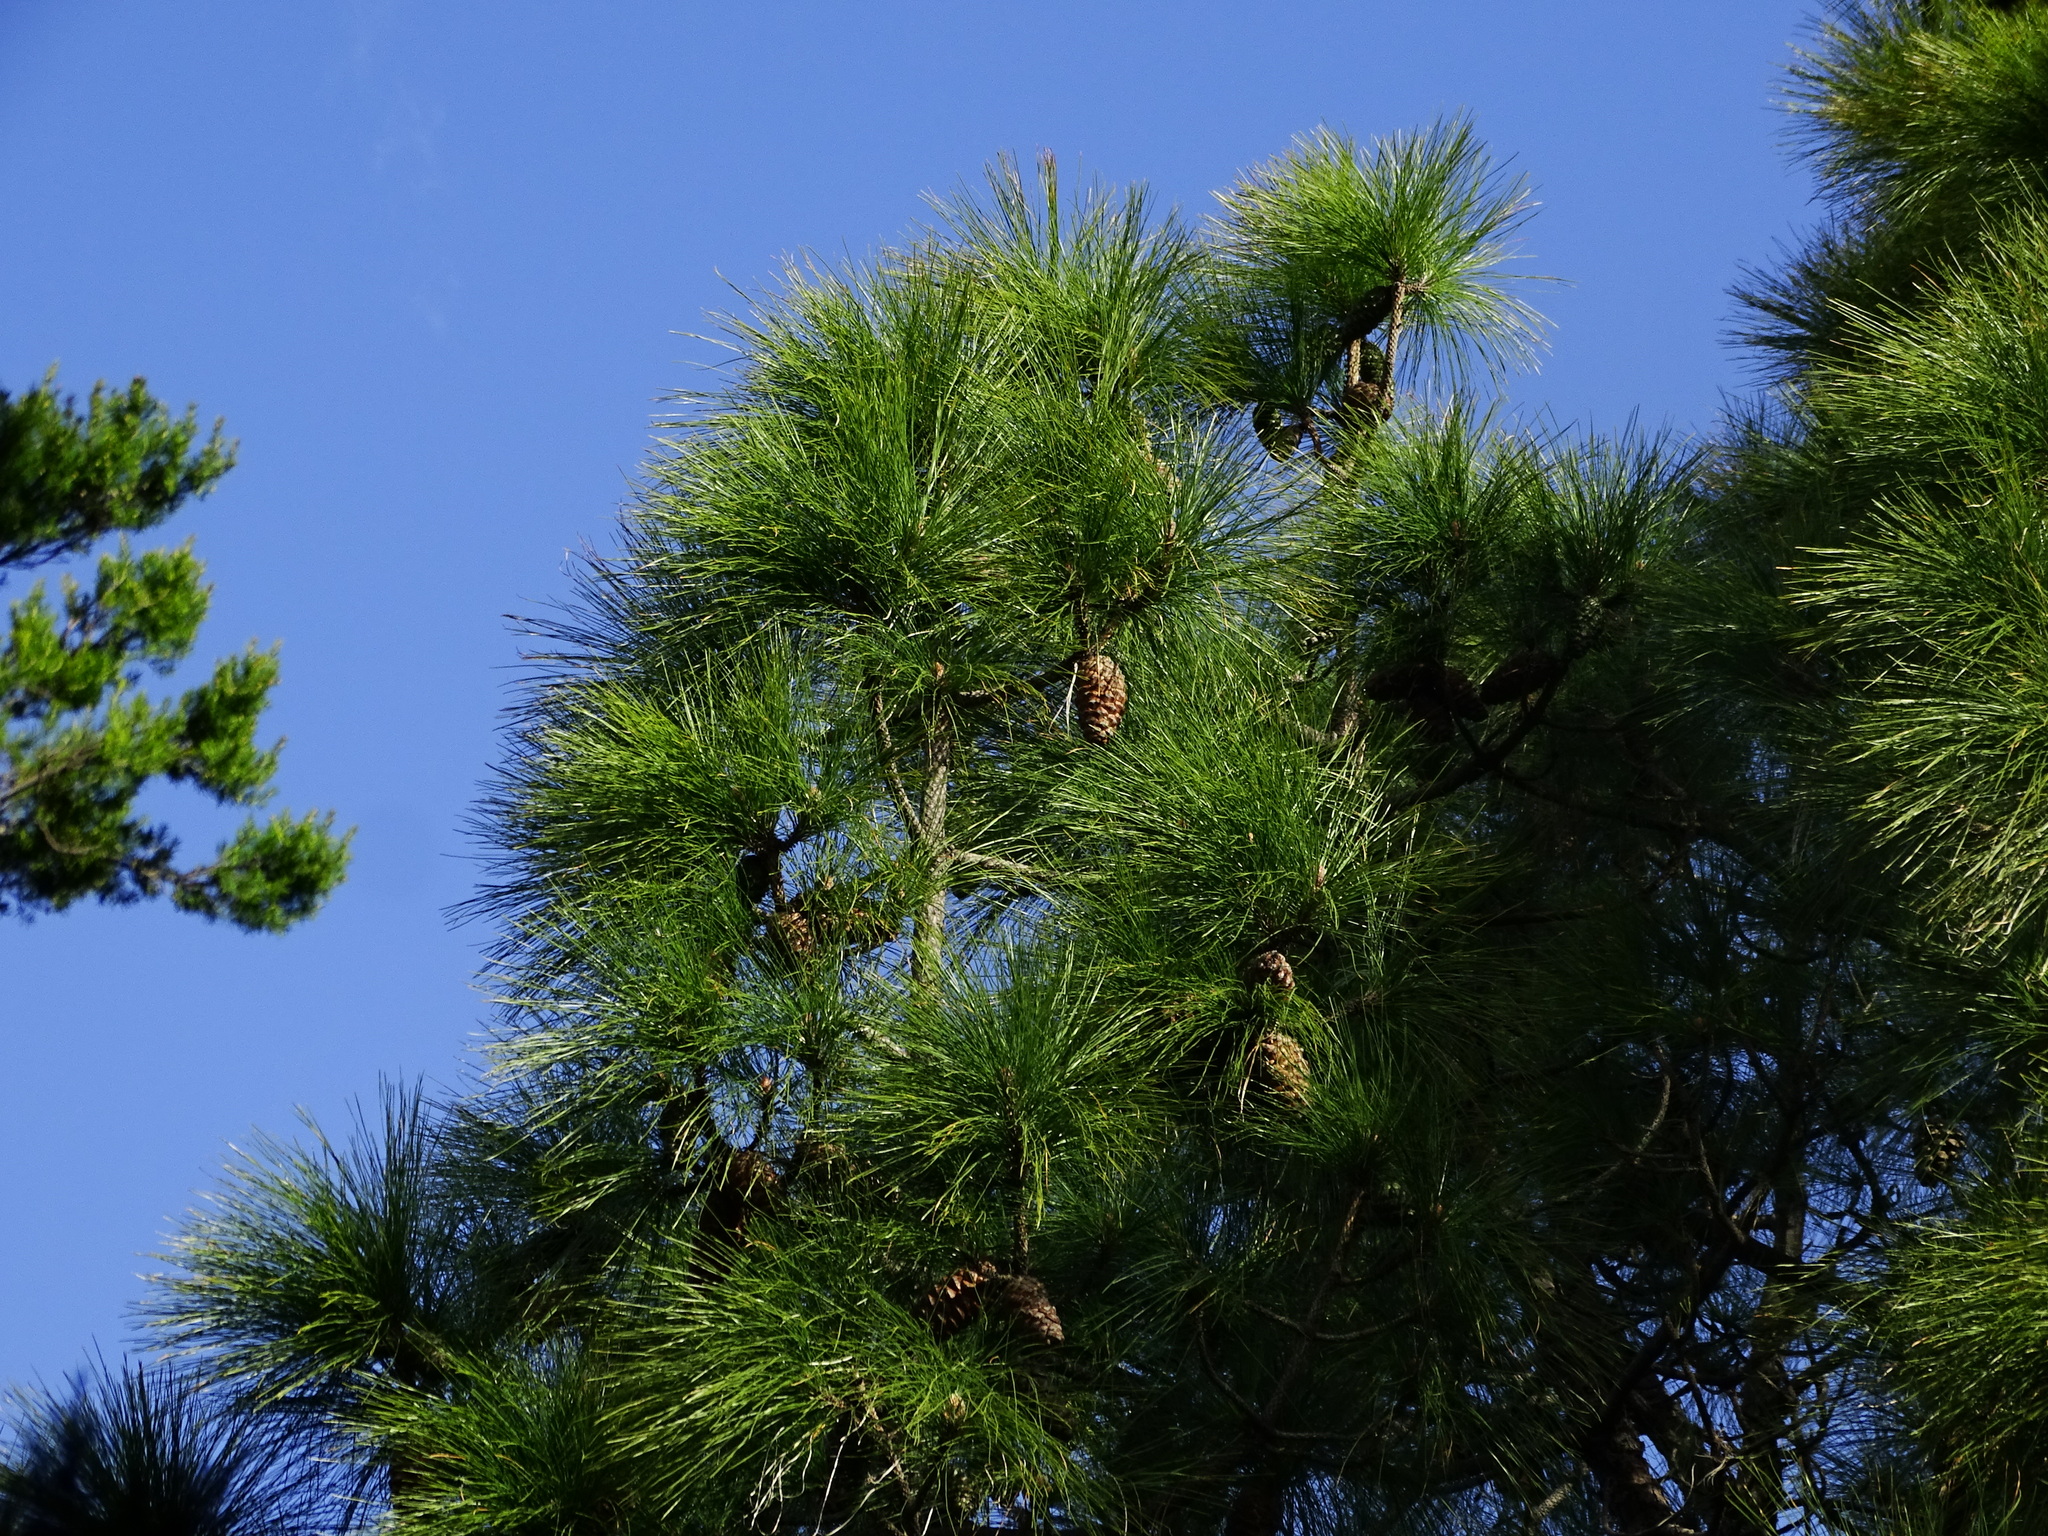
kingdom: Plantae
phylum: Tracheophyta
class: Pinopsida
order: Pinales
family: Pinaceae
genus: Pinus
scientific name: Pinus canariensis
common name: Canary islands pine
